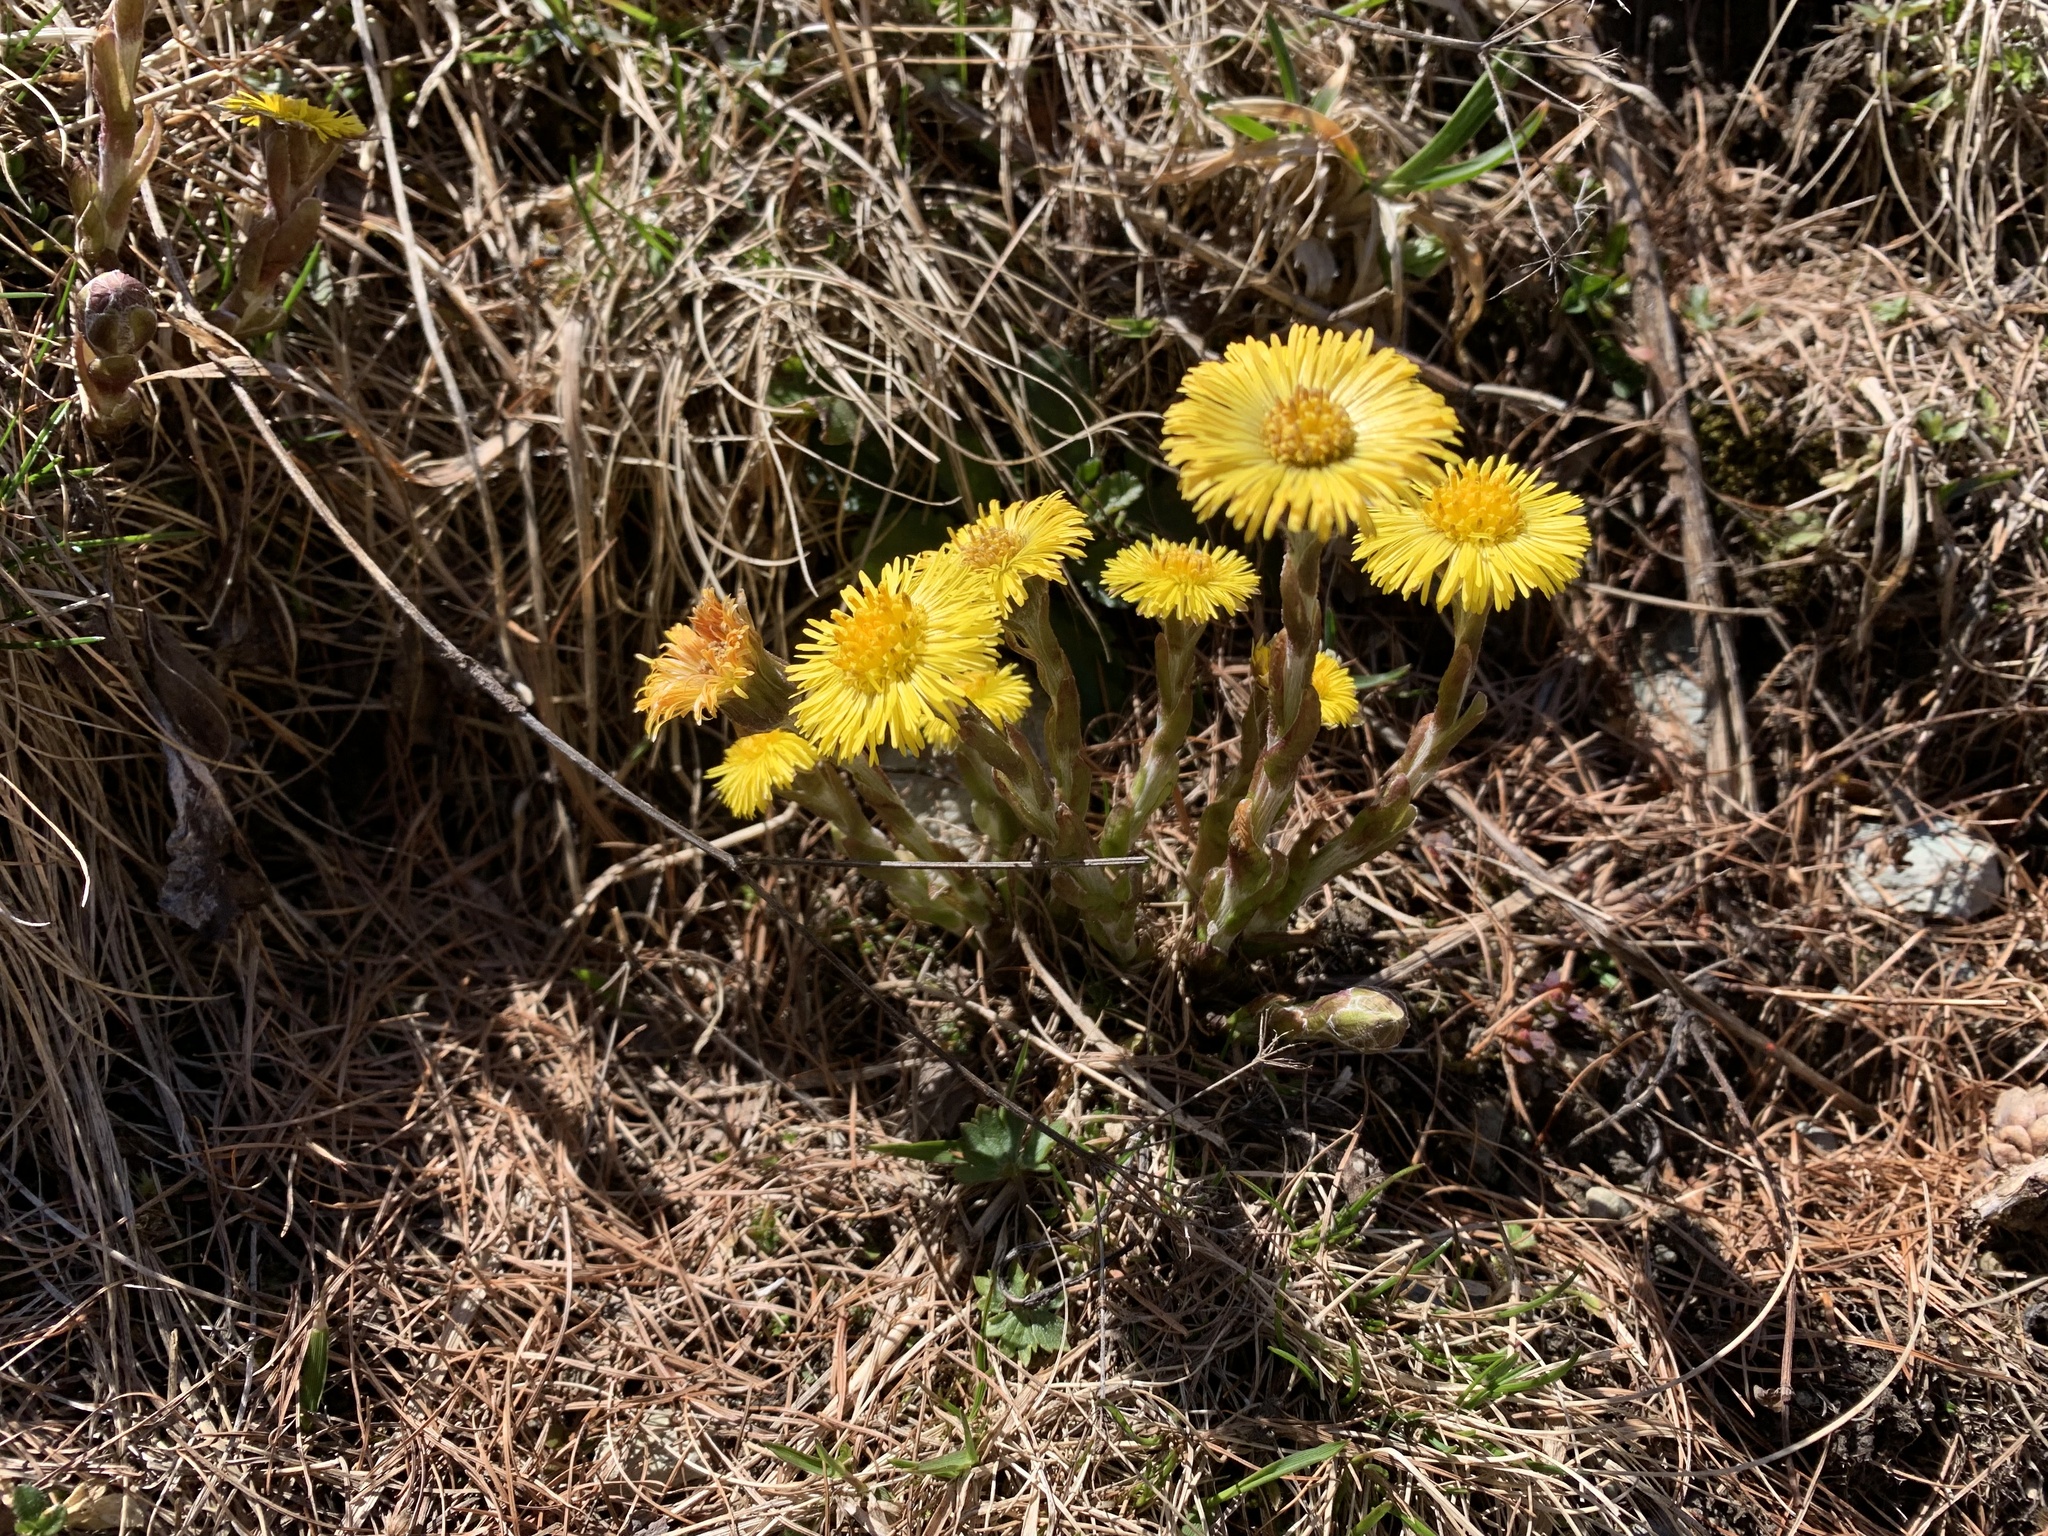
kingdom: Plantae
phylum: Tracheophyta
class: Magnoliopsida
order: Asterales
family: Asteraceae
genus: Tussilago
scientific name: Tussilago farfara
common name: Coltsfoot
